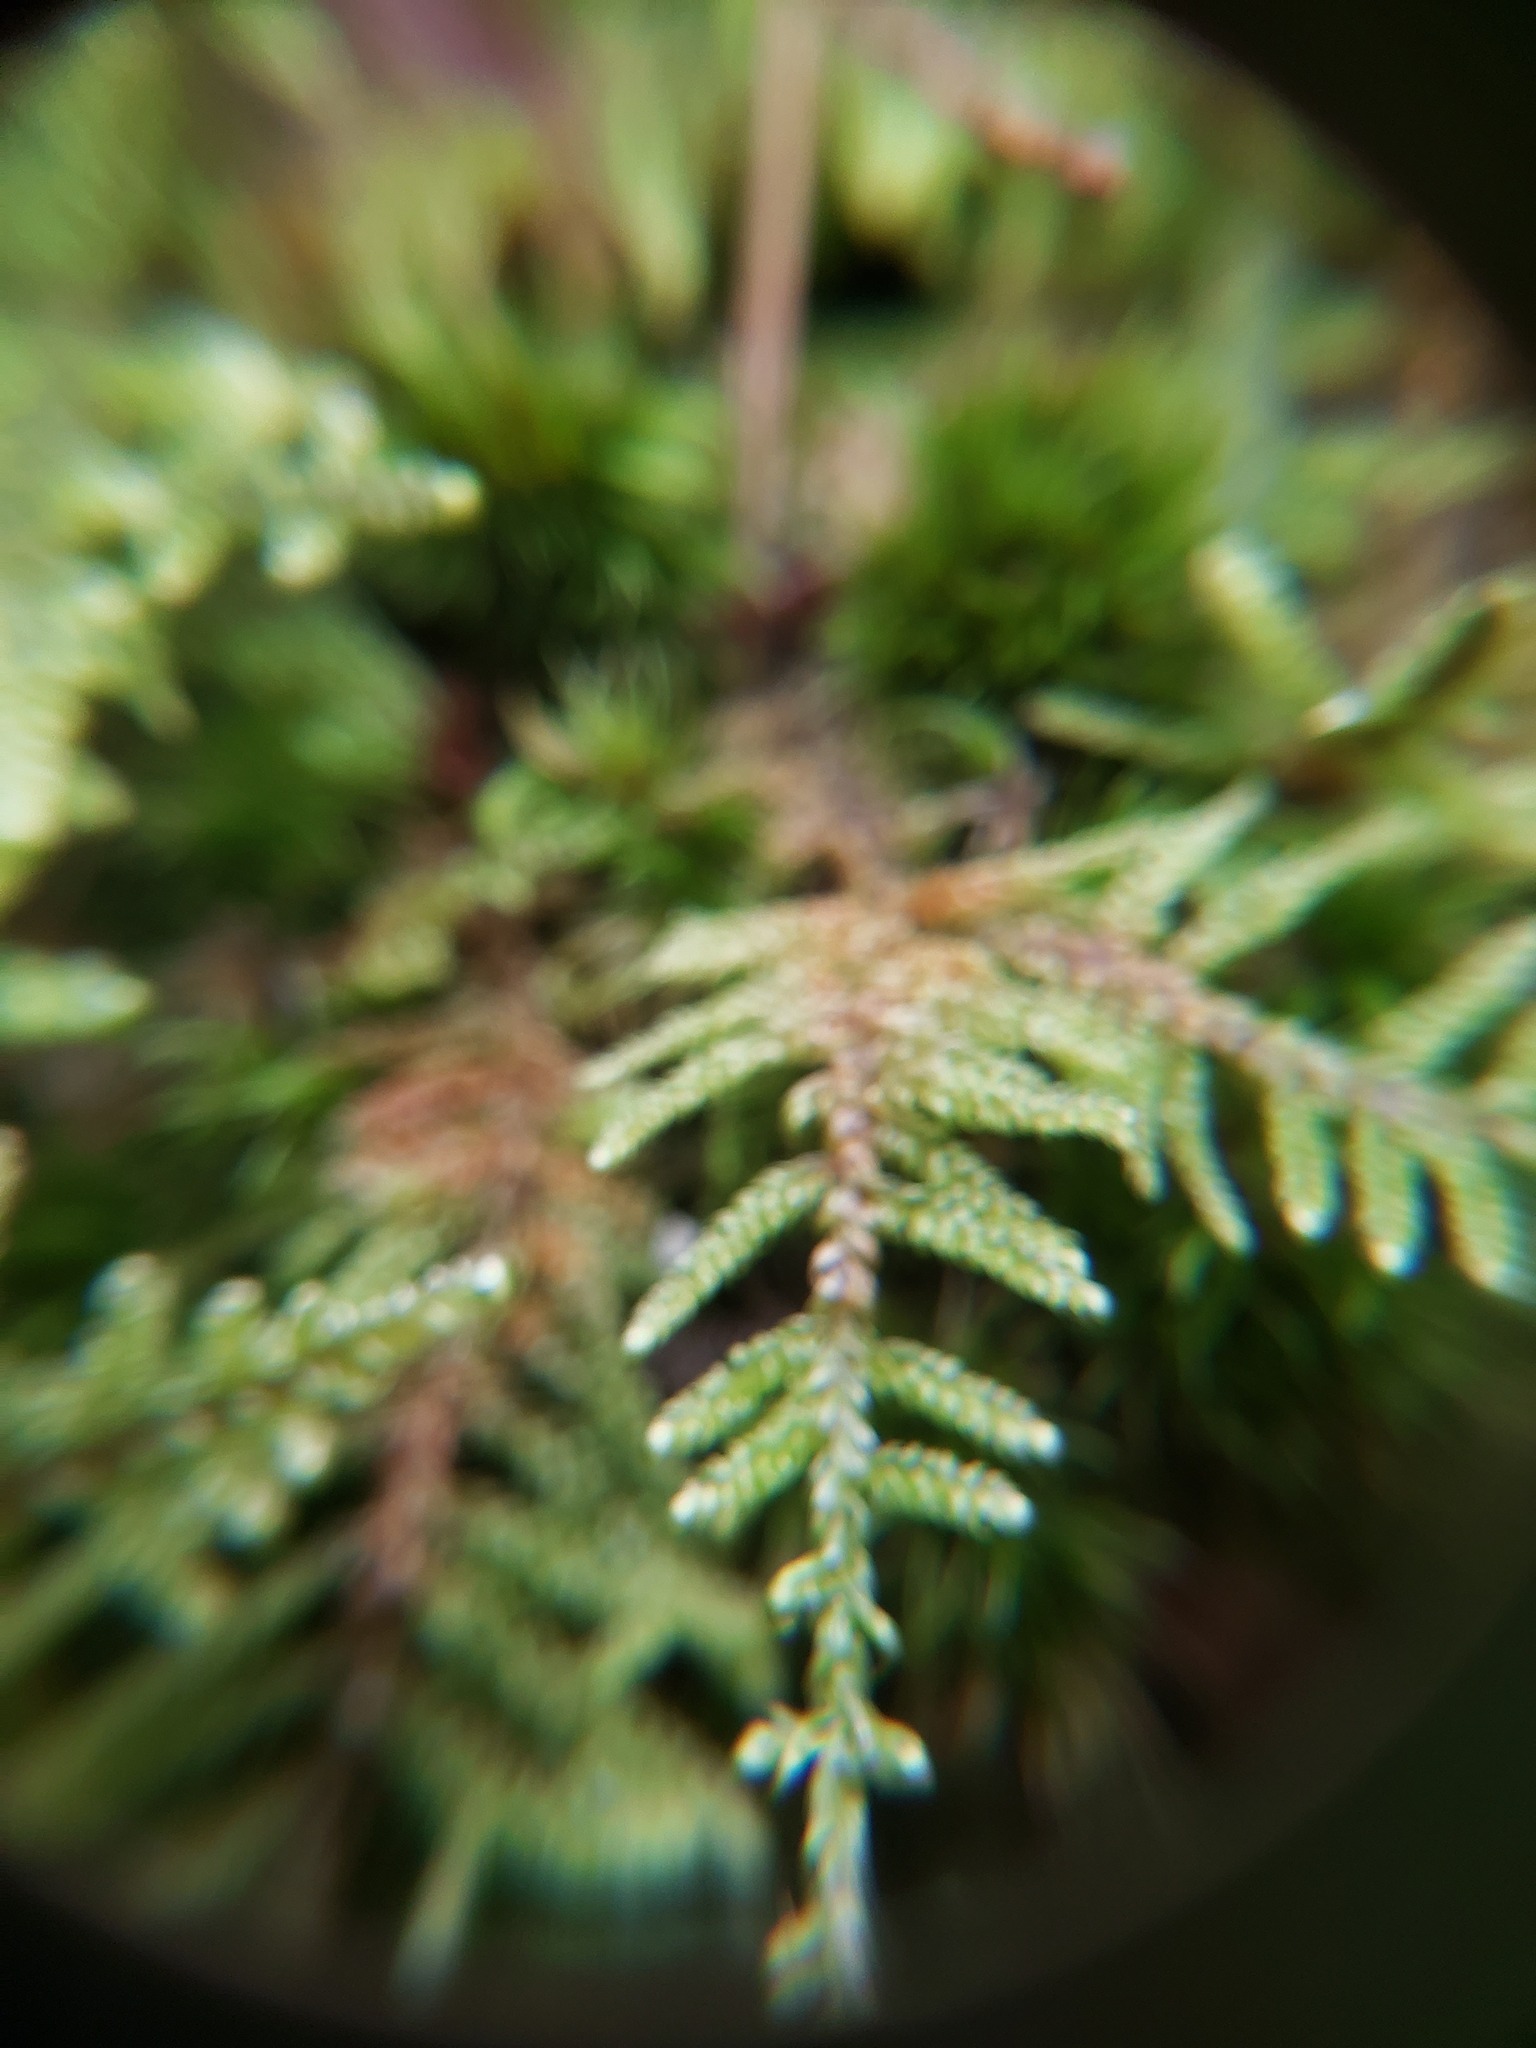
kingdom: Plantae
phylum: Bryophyta
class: Bryopsida
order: Hypnales
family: Callicladiaceae
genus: Callicladium
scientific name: Callicladium imponens
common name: Brocade moss
